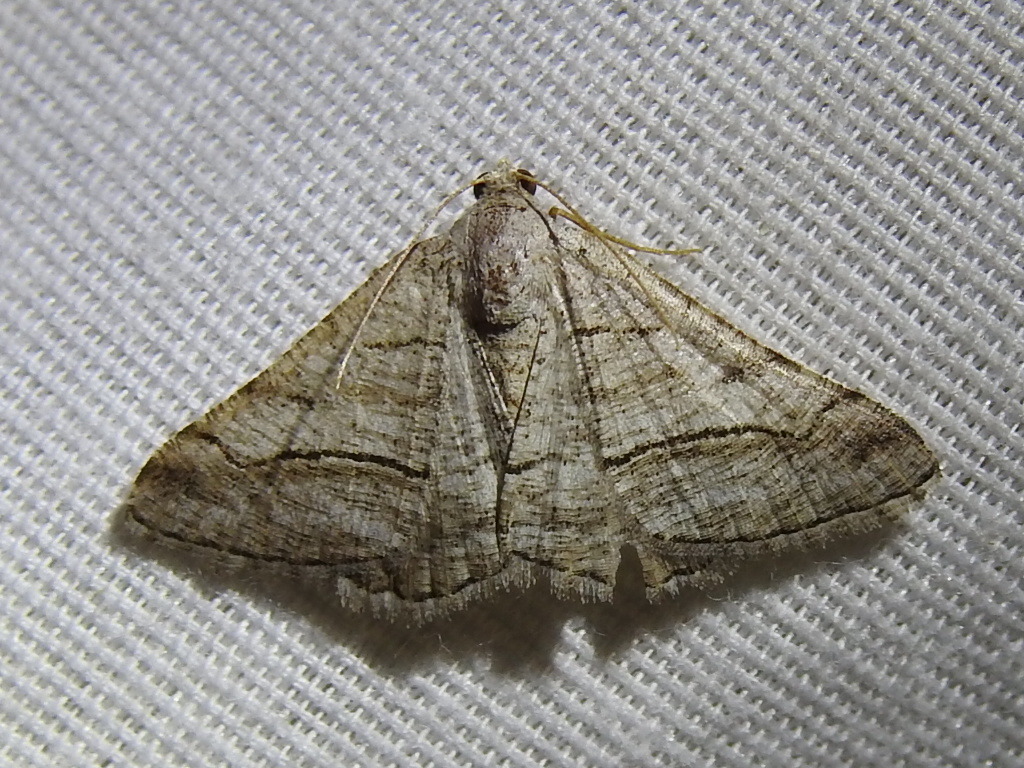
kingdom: Animalia
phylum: Arthropoda
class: Insecta
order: Lepidoptera
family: Geometridae
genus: Digrammia
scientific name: Digrammia pallorata
